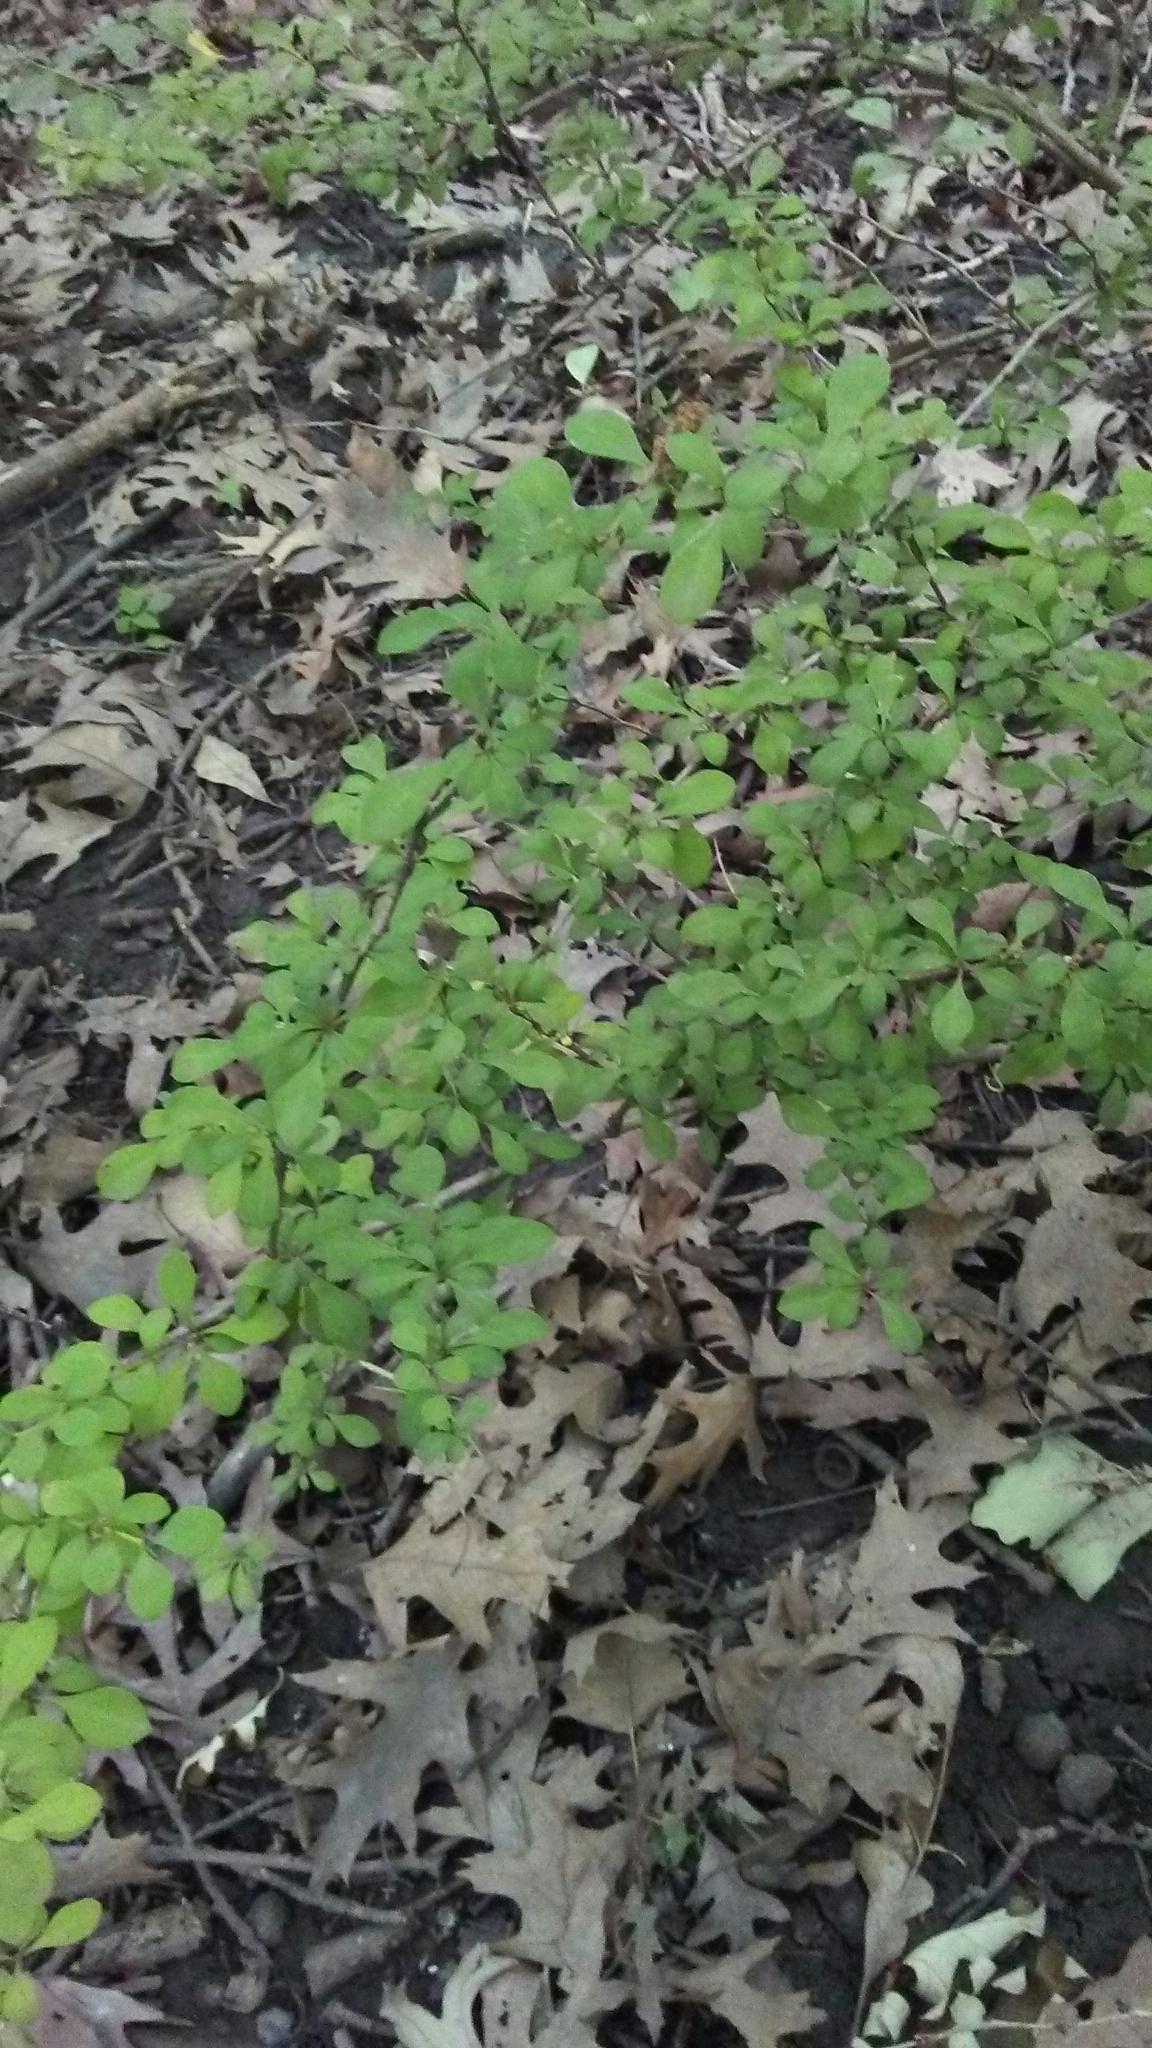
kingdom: Plantae
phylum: Tracheophyta
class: Magnoliopsida
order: Ranunculales
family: Berberidaceae
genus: Berberis
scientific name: Berberis thunbergii
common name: Japanese barberry
